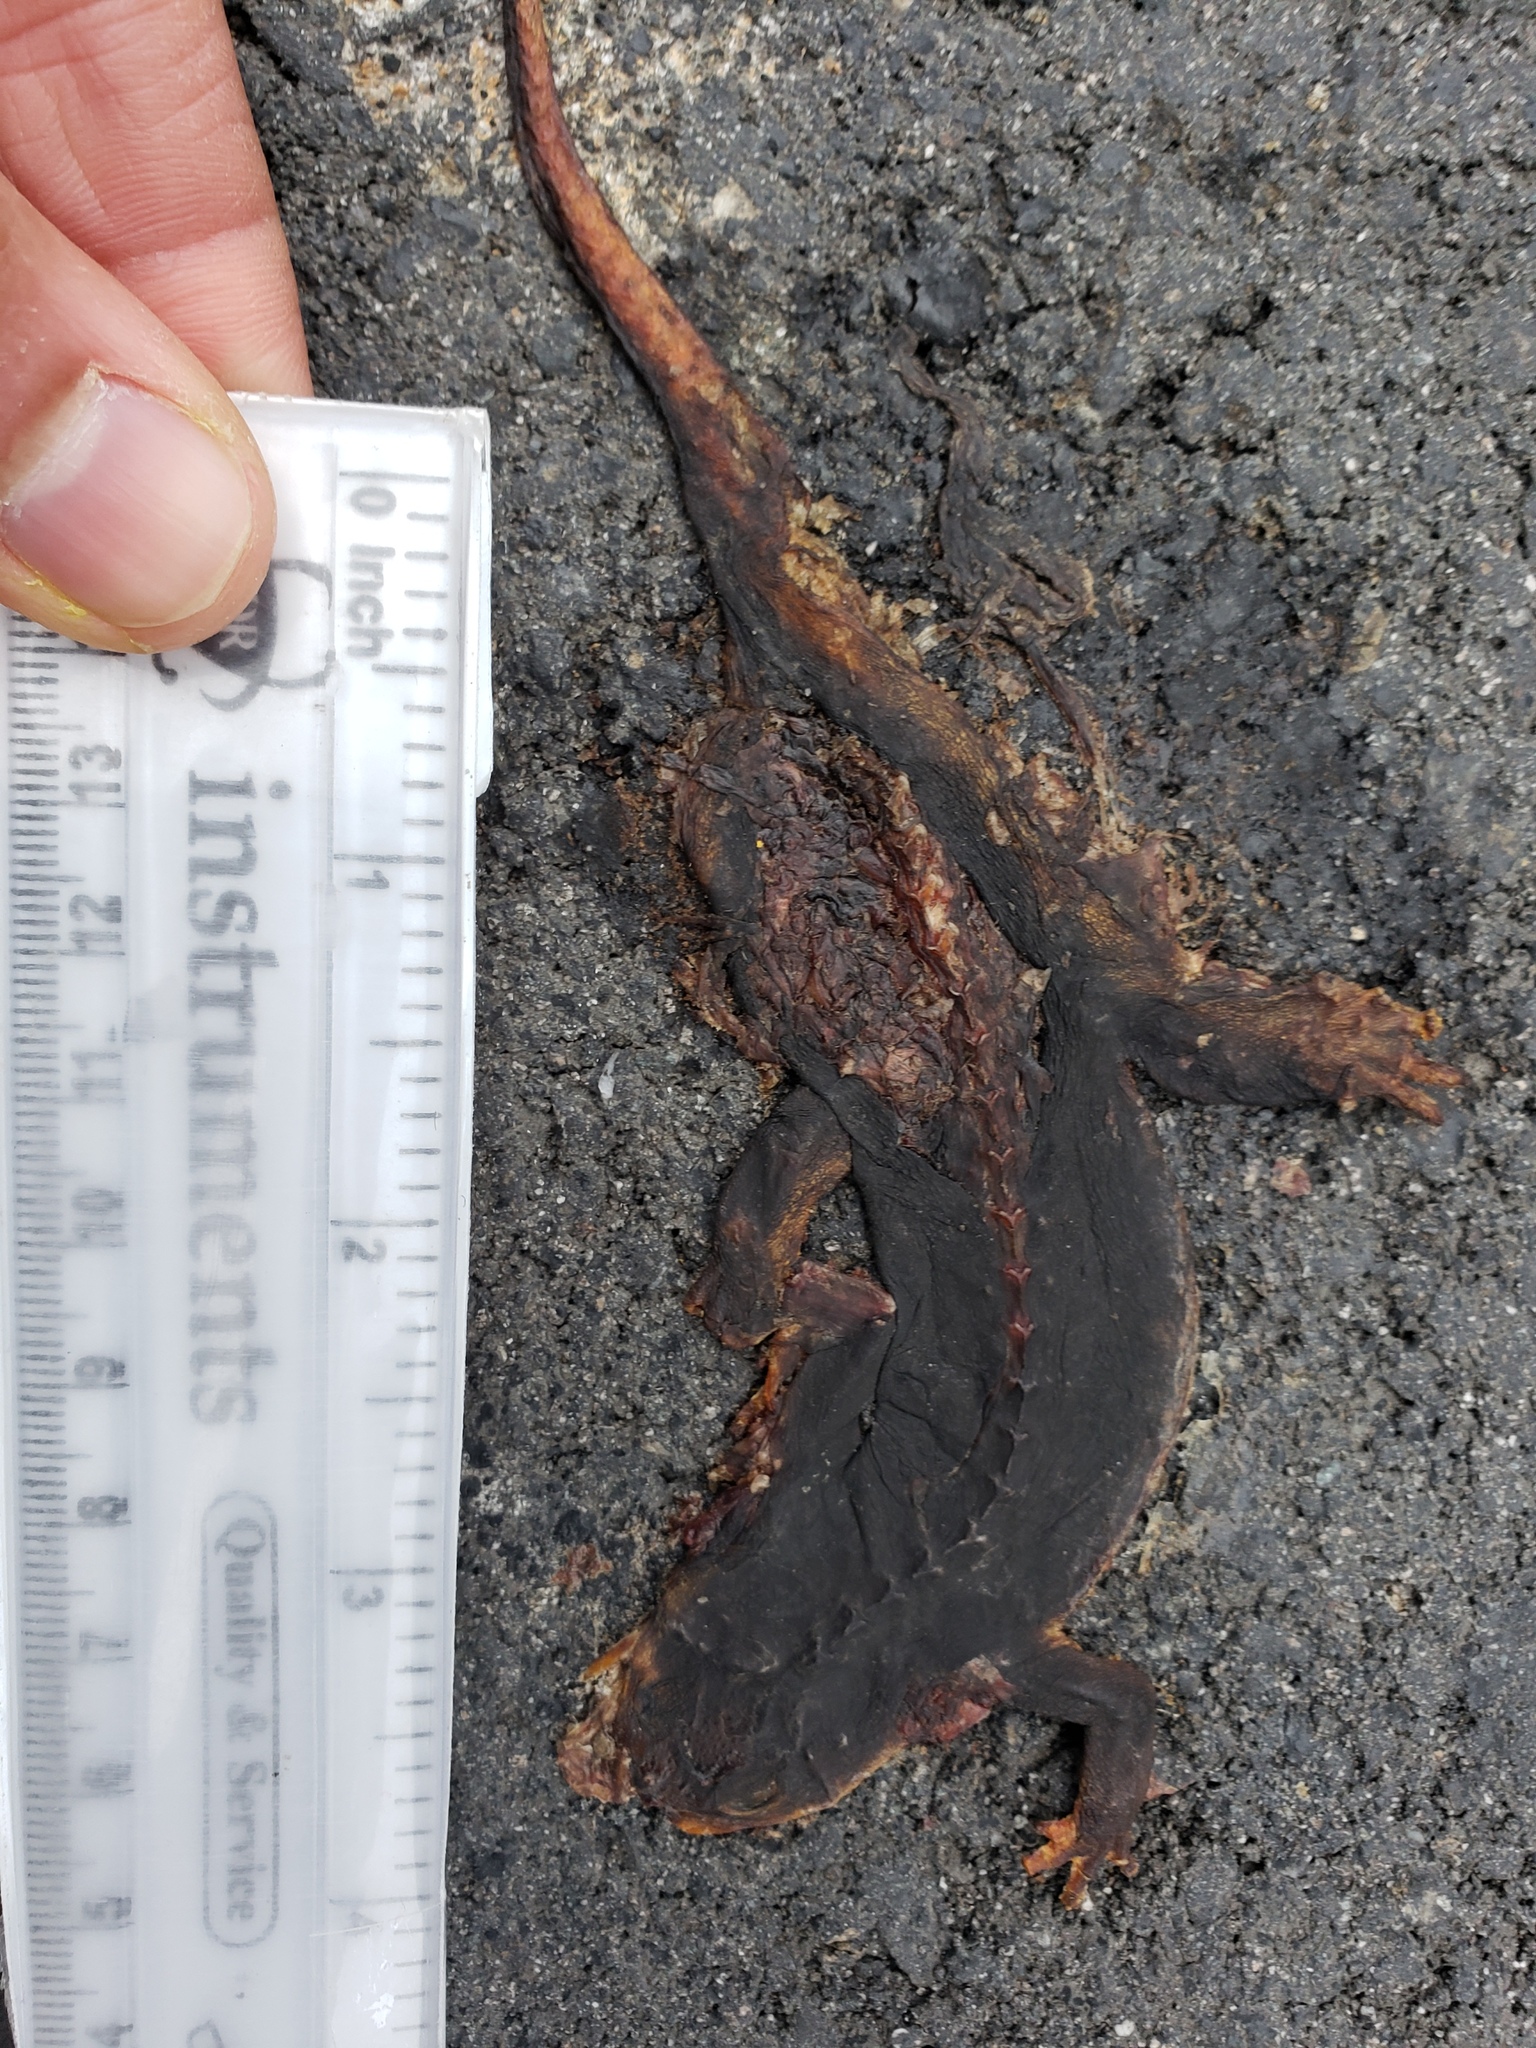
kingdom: Animalia
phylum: Chordata
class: Amphibia
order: Caudata
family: Salamandridae
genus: Taricha
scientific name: Taricha
